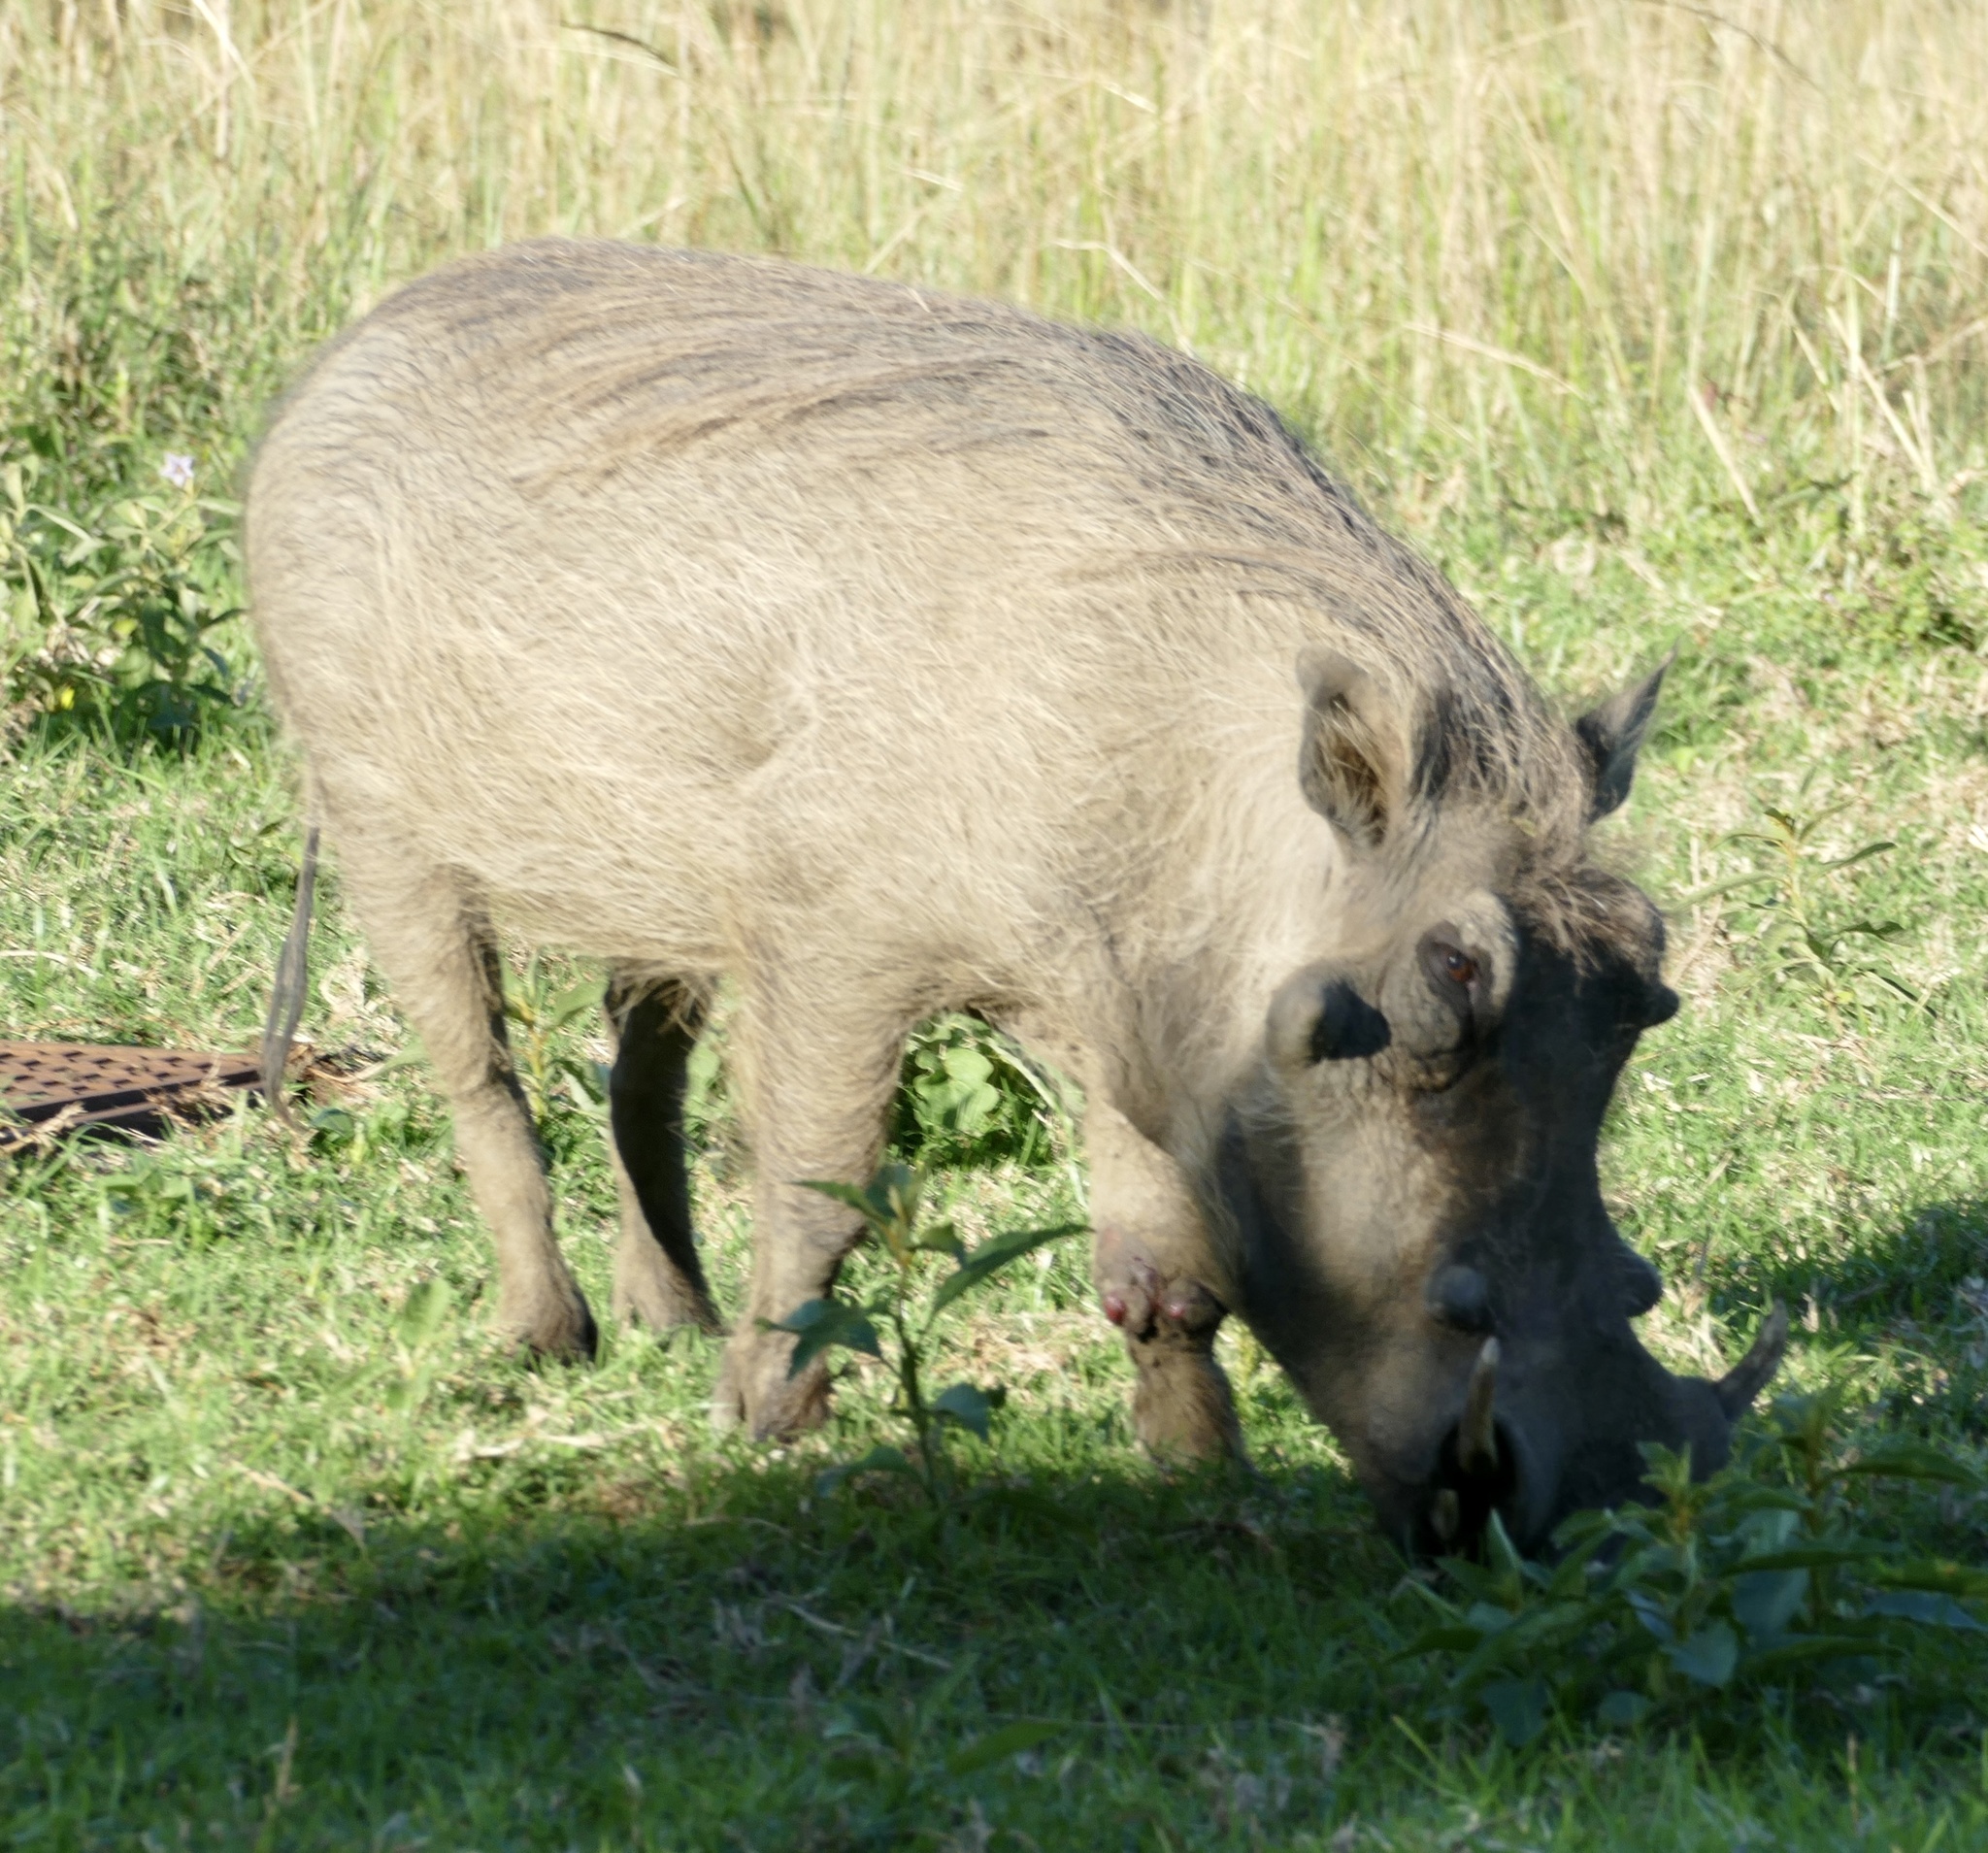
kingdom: Animalia
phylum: Chordata
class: Mammalia
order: Artiodactyla
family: Suidae
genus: Phacochoerus
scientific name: Phacochoerus africanus
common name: Common warthog
